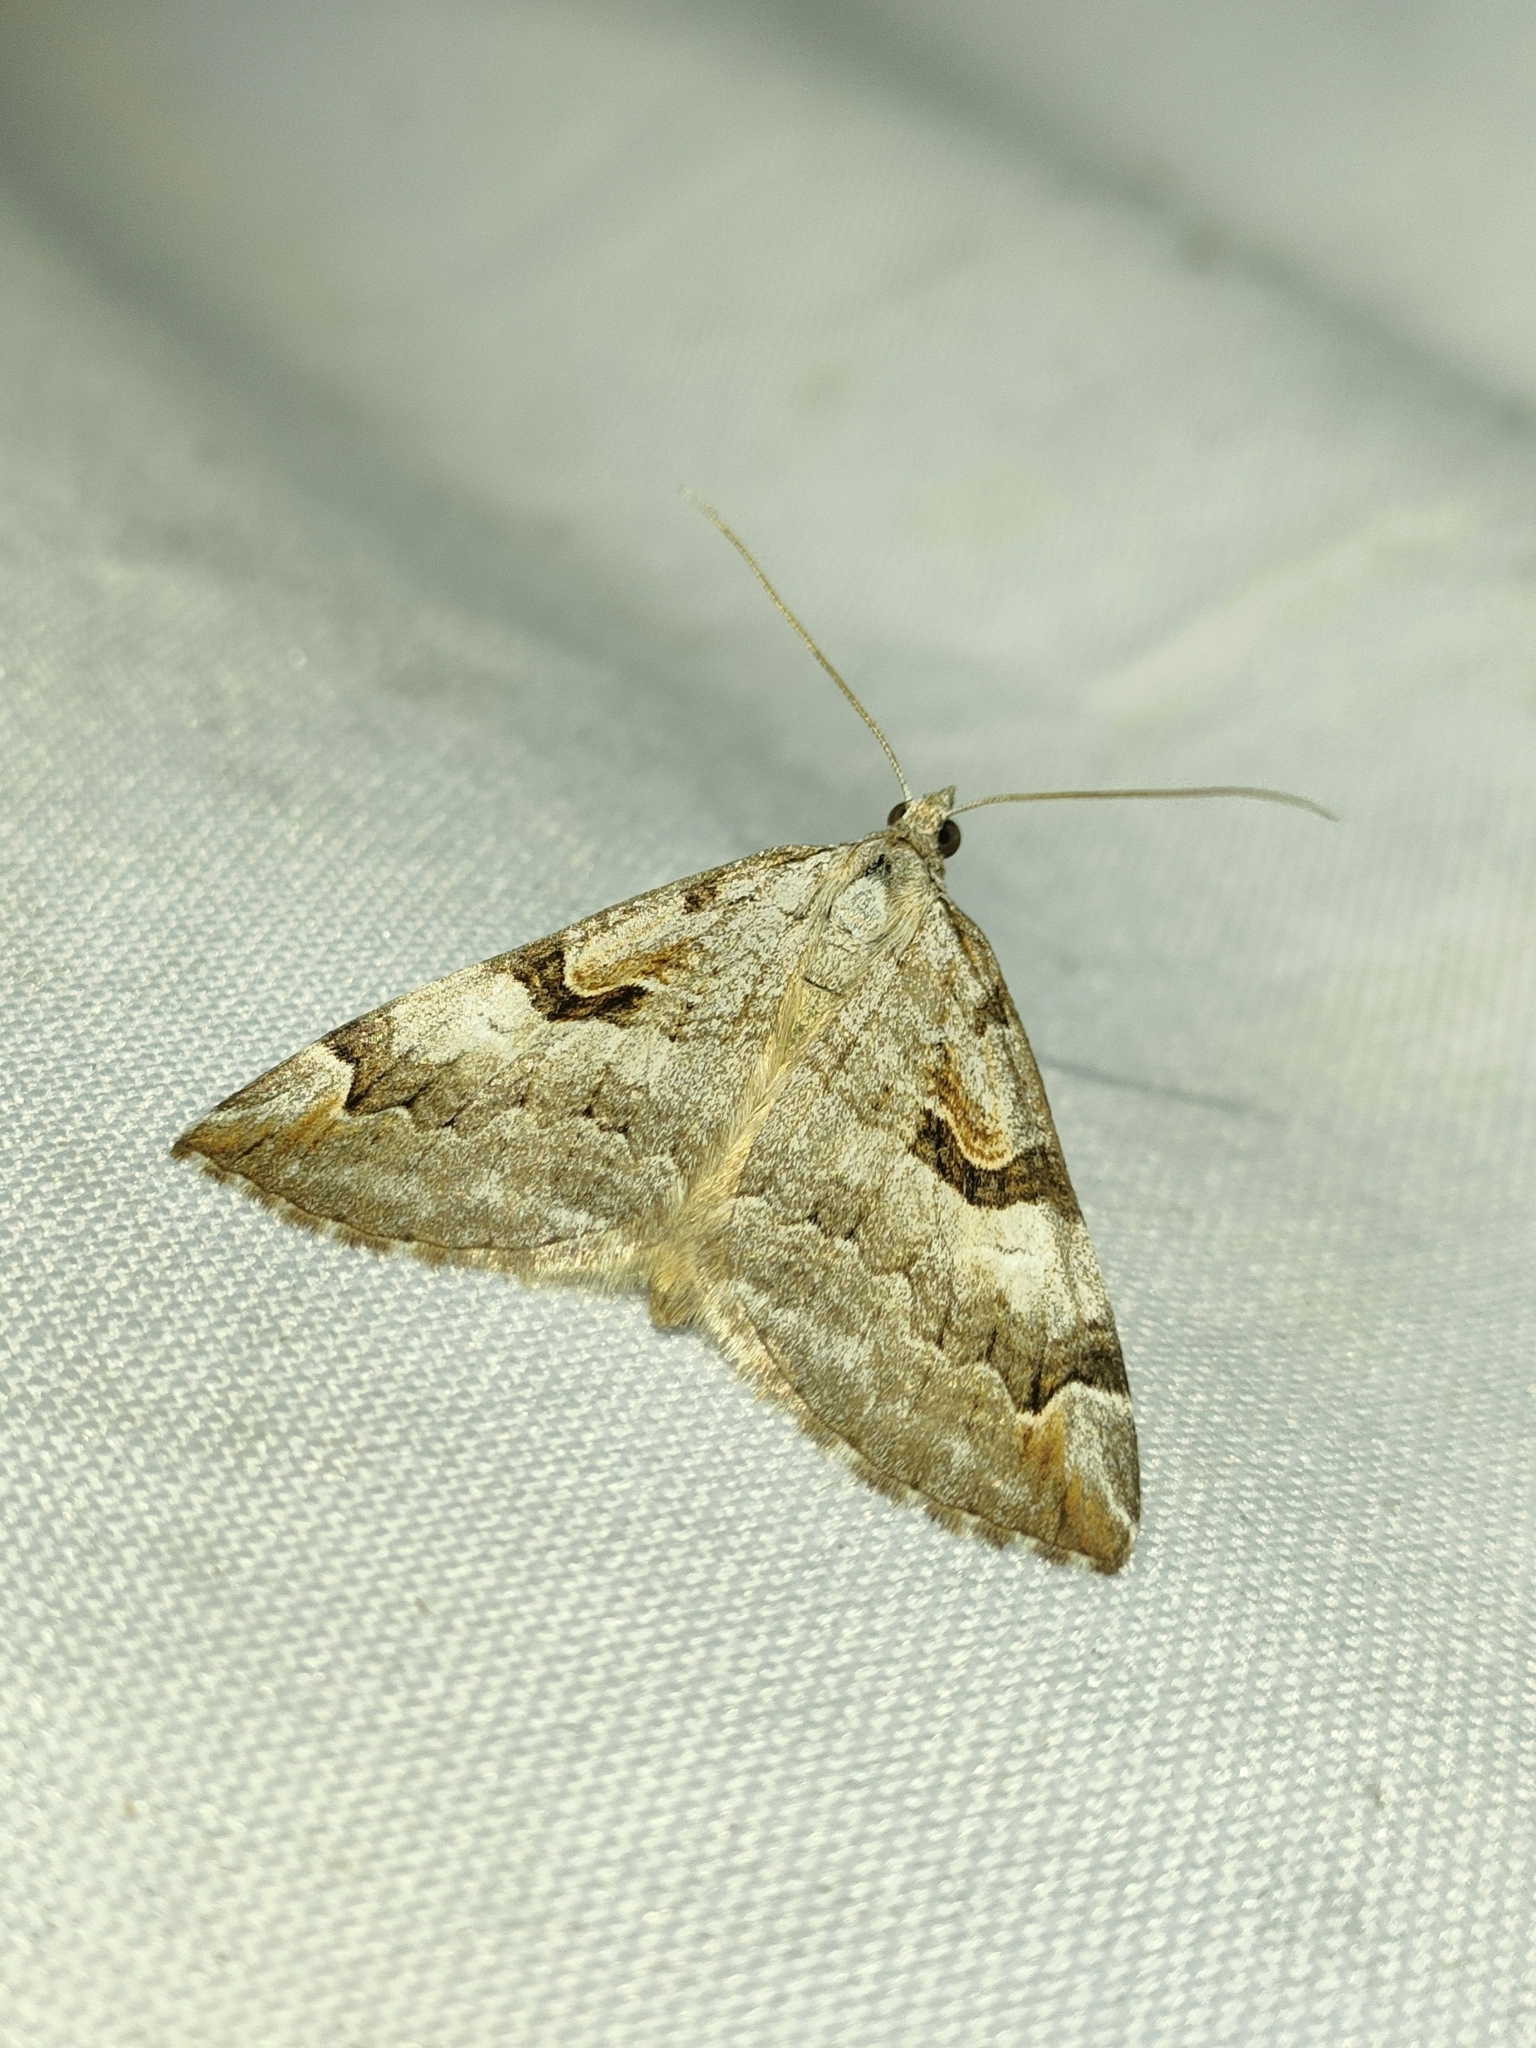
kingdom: Animalia
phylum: Arthropoda
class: Insecta
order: Lepidoptera
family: Geometridae
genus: Aplocera
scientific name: Aplocera praeformata
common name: Purple treble-bar
